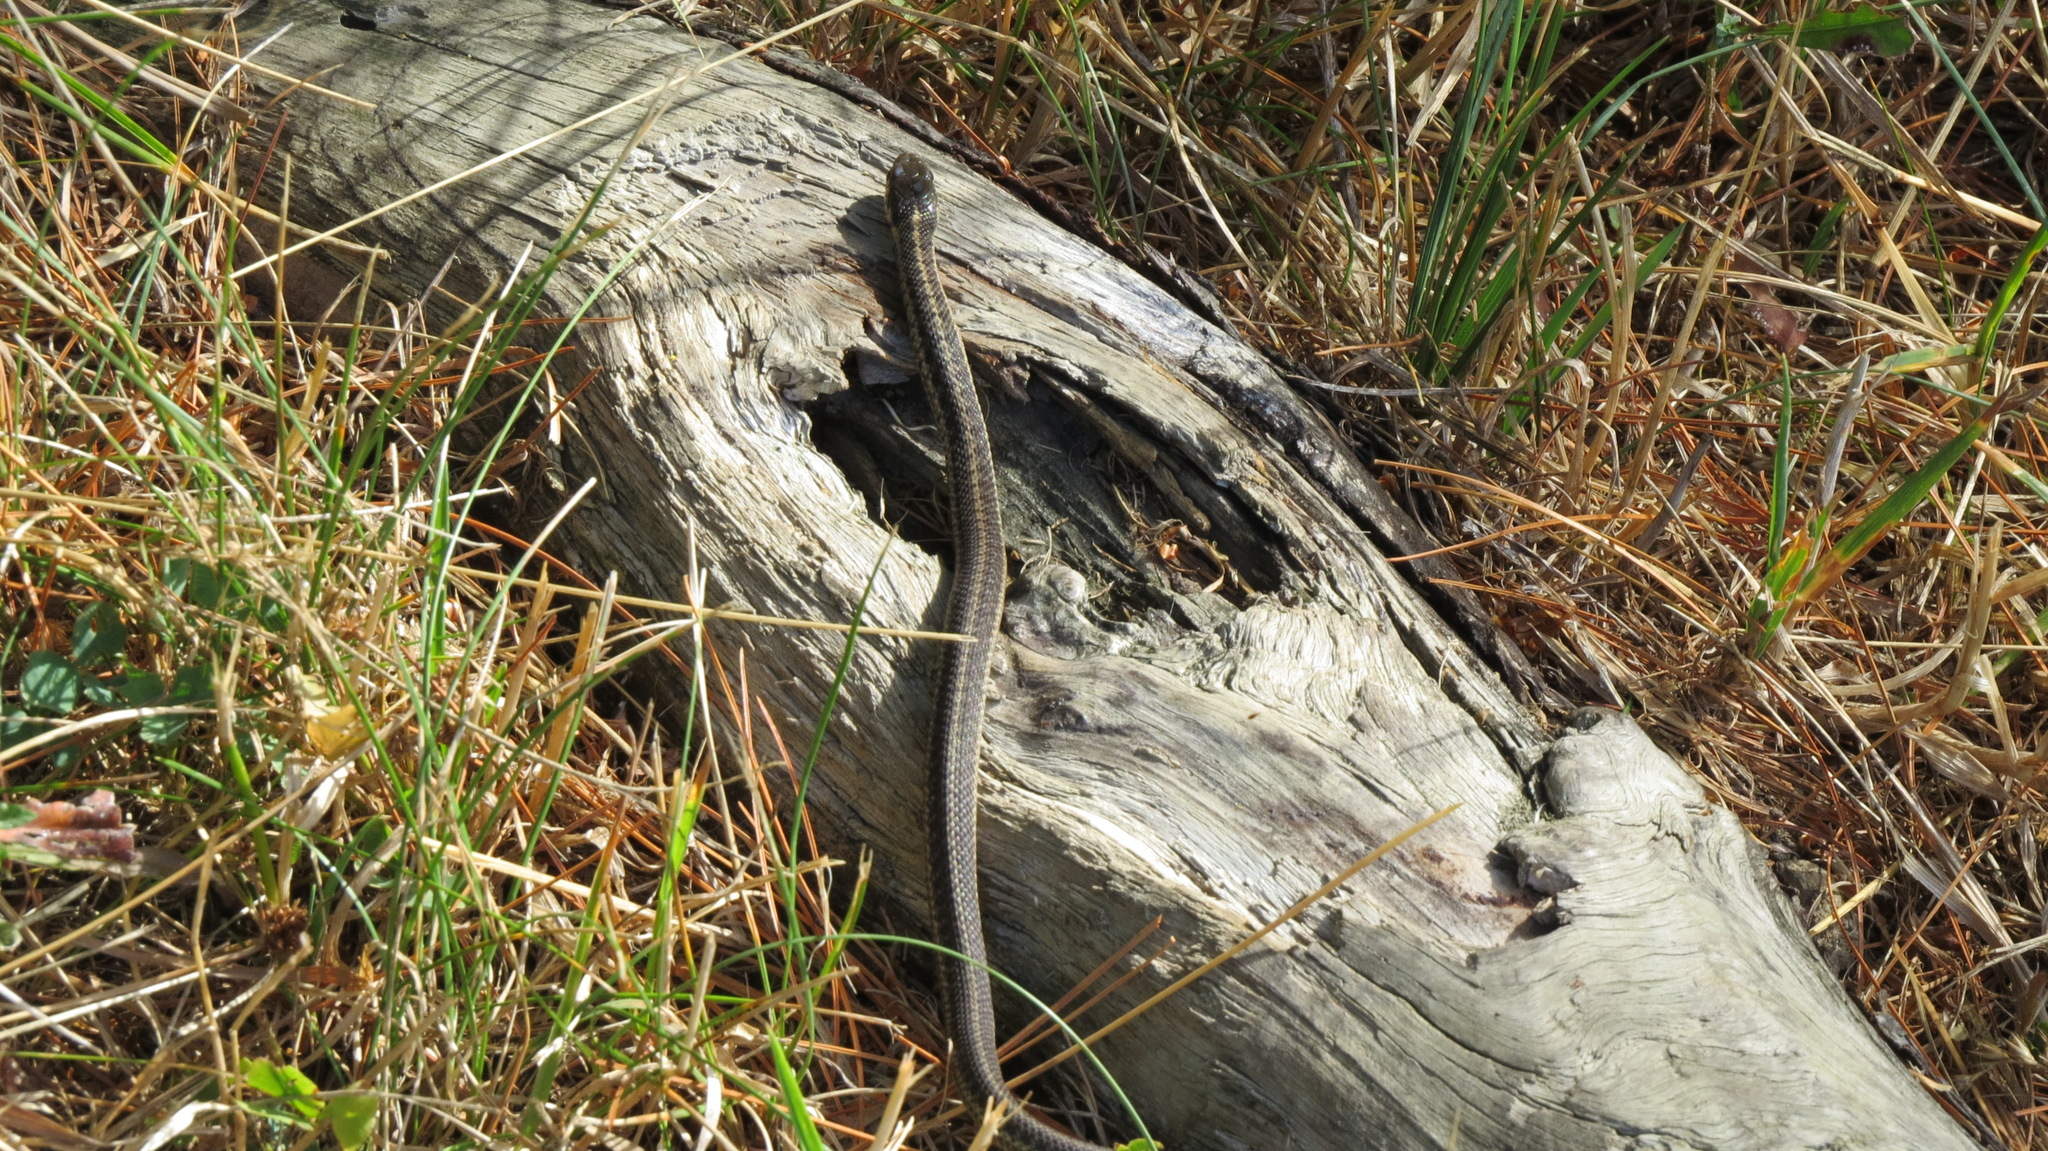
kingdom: Animalia
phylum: Chordata
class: Squamata
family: Colubridae
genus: Thamnophis
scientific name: Thamnophis sirtalis
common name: Common garter snake
